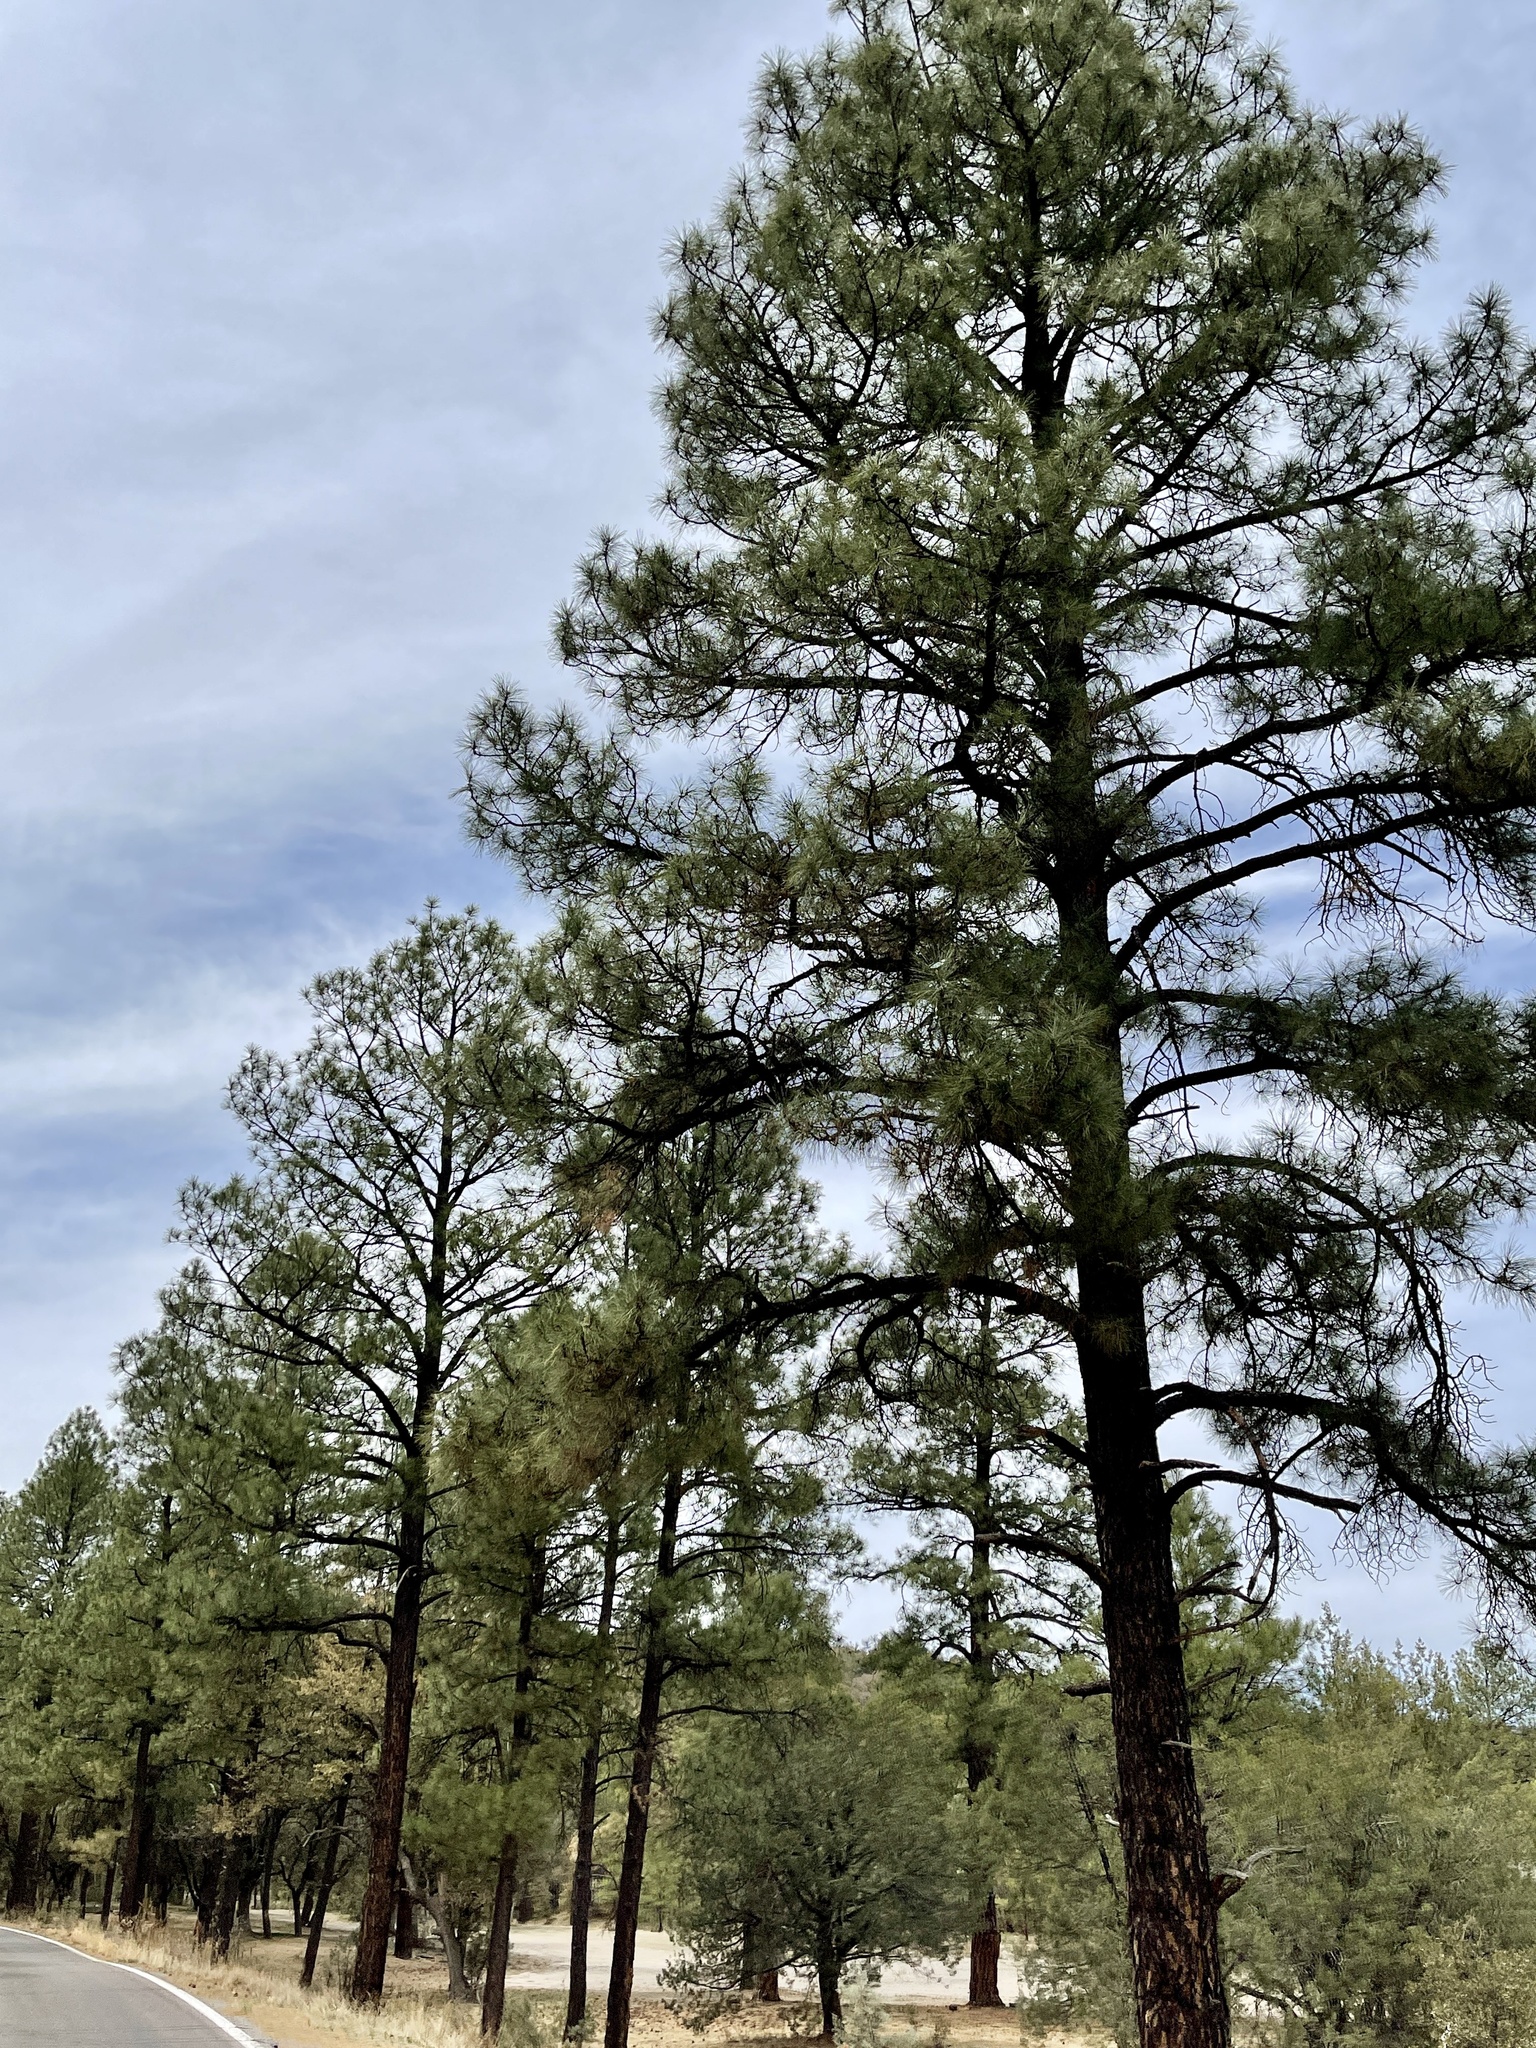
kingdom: Plantae
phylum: Tracheophyta
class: Pinopsida
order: Pinales
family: Pinaceae
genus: Pinus
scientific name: Pinus ponderosa
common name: Western yellow-pine
